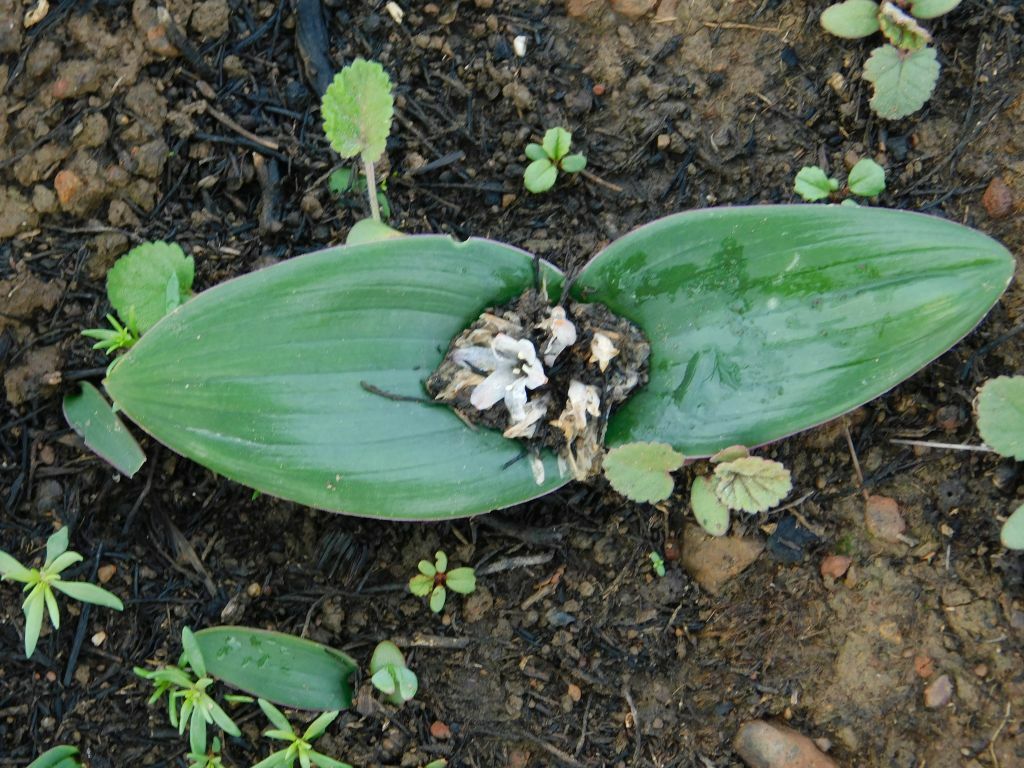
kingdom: Plantae
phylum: Tracheophyta
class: Liliopsida
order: Asparagales
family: Asparagaceae
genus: Lachenalia
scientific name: Lachenalia ensifolia
